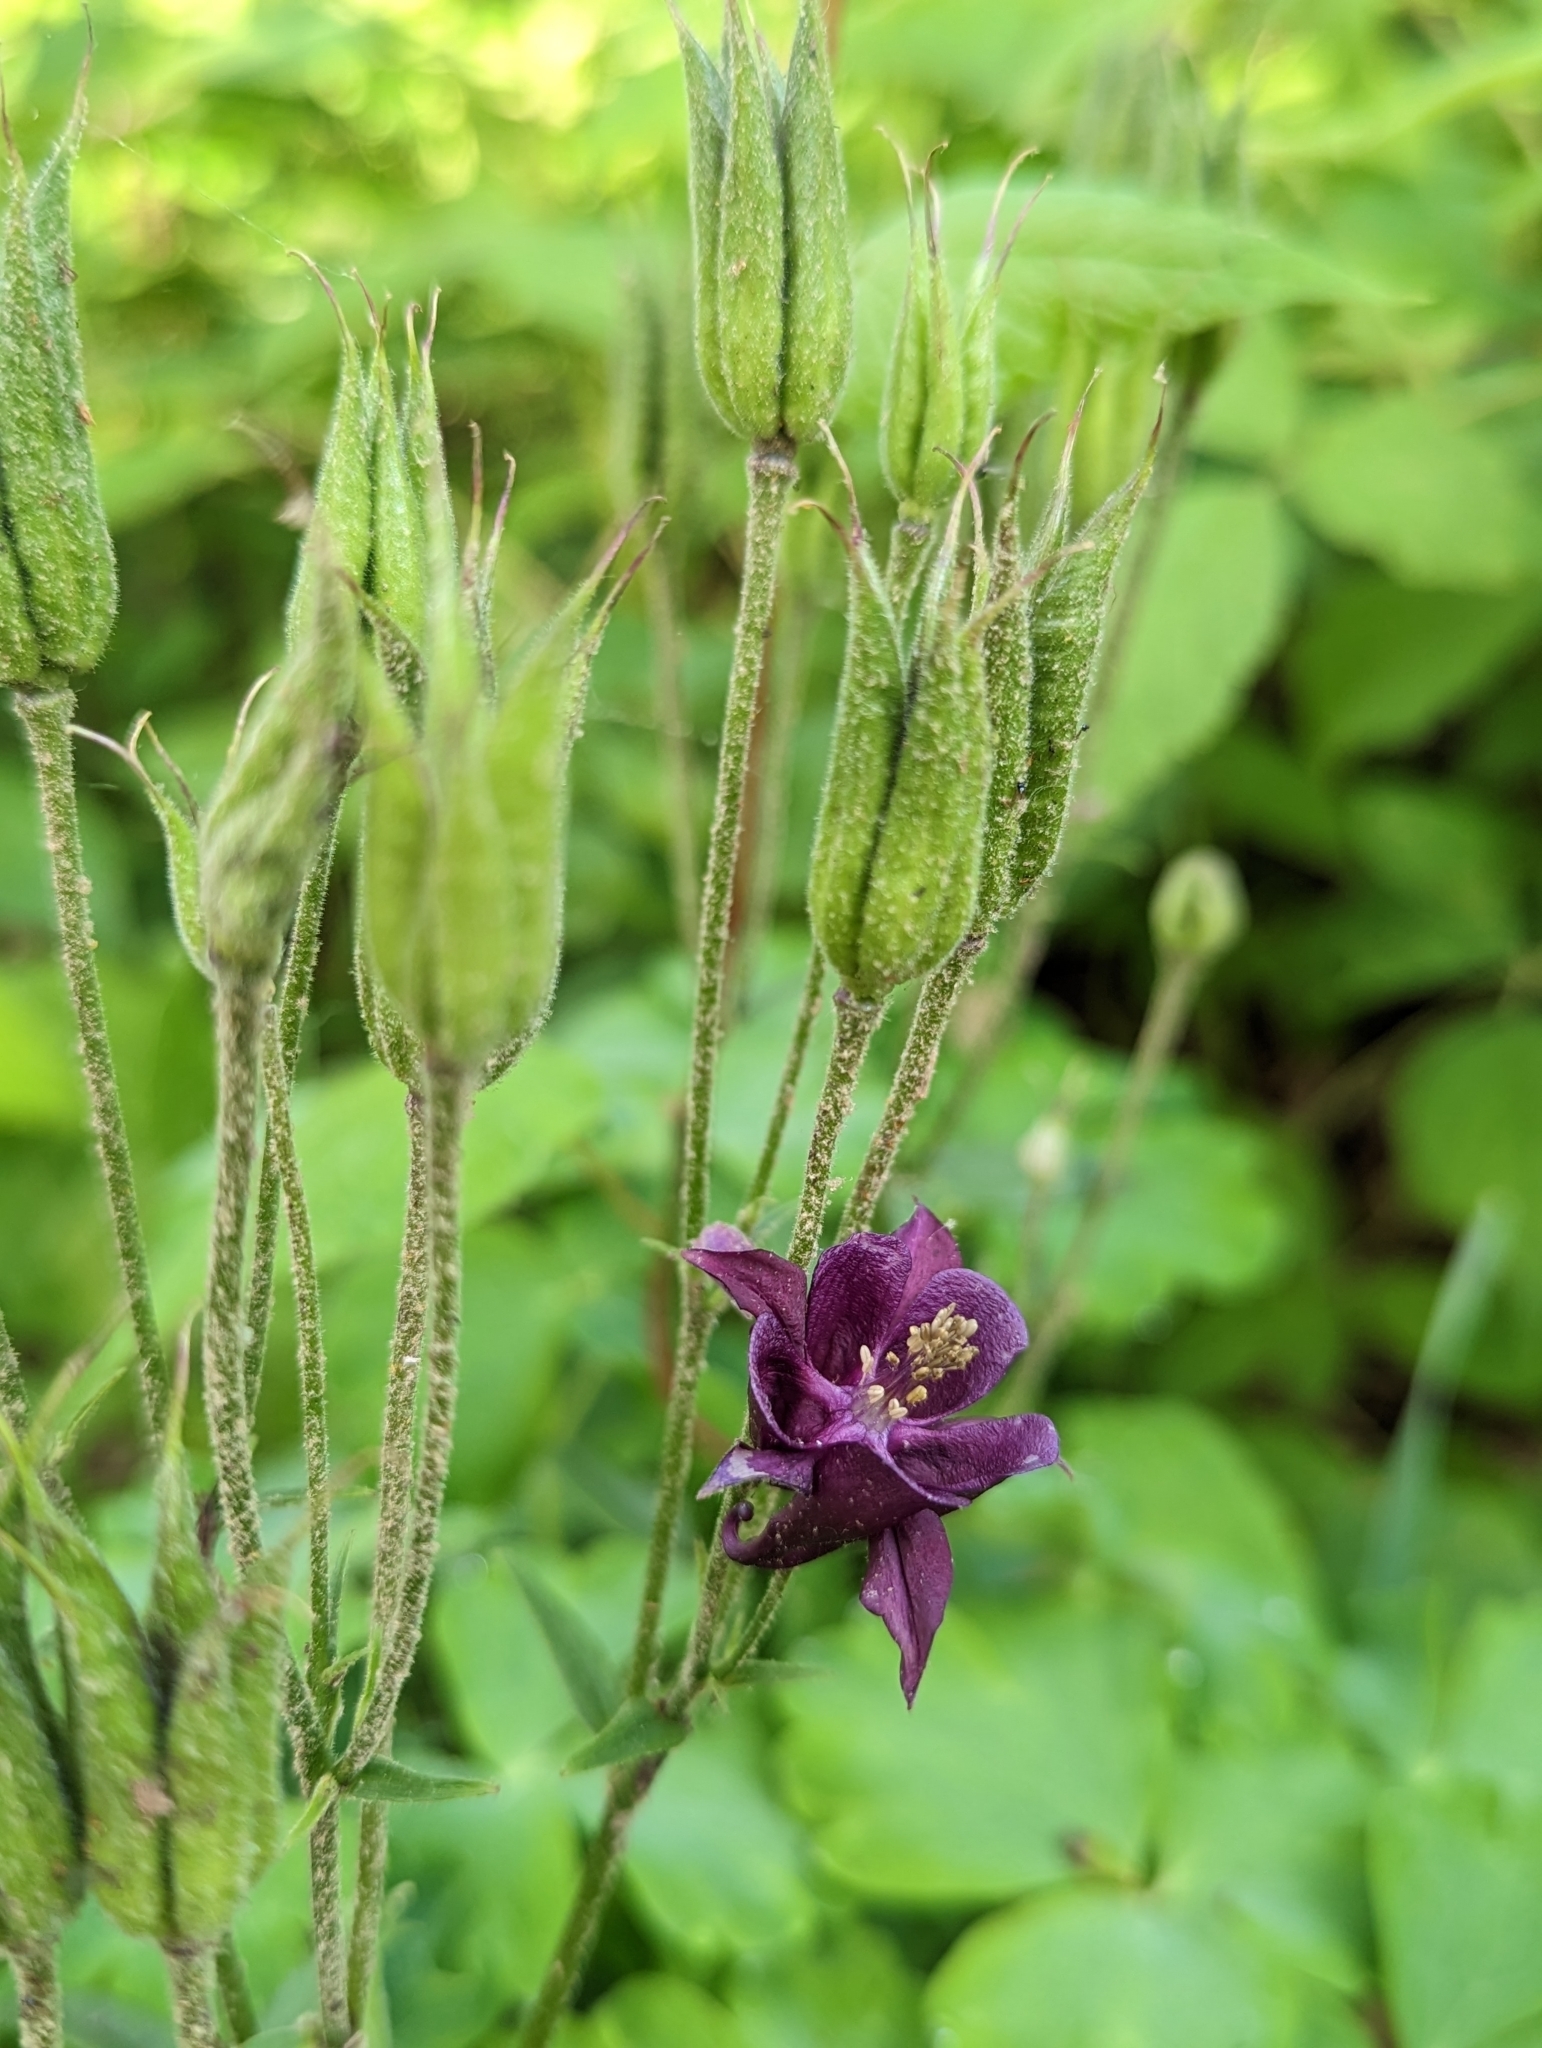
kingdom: Plantae
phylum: Tracheophyta
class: Magnoliopsida
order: Ranunculales
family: Ranunculaceae
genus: Aquilegia
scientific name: Aquilegia vulgaris
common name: Columbine
